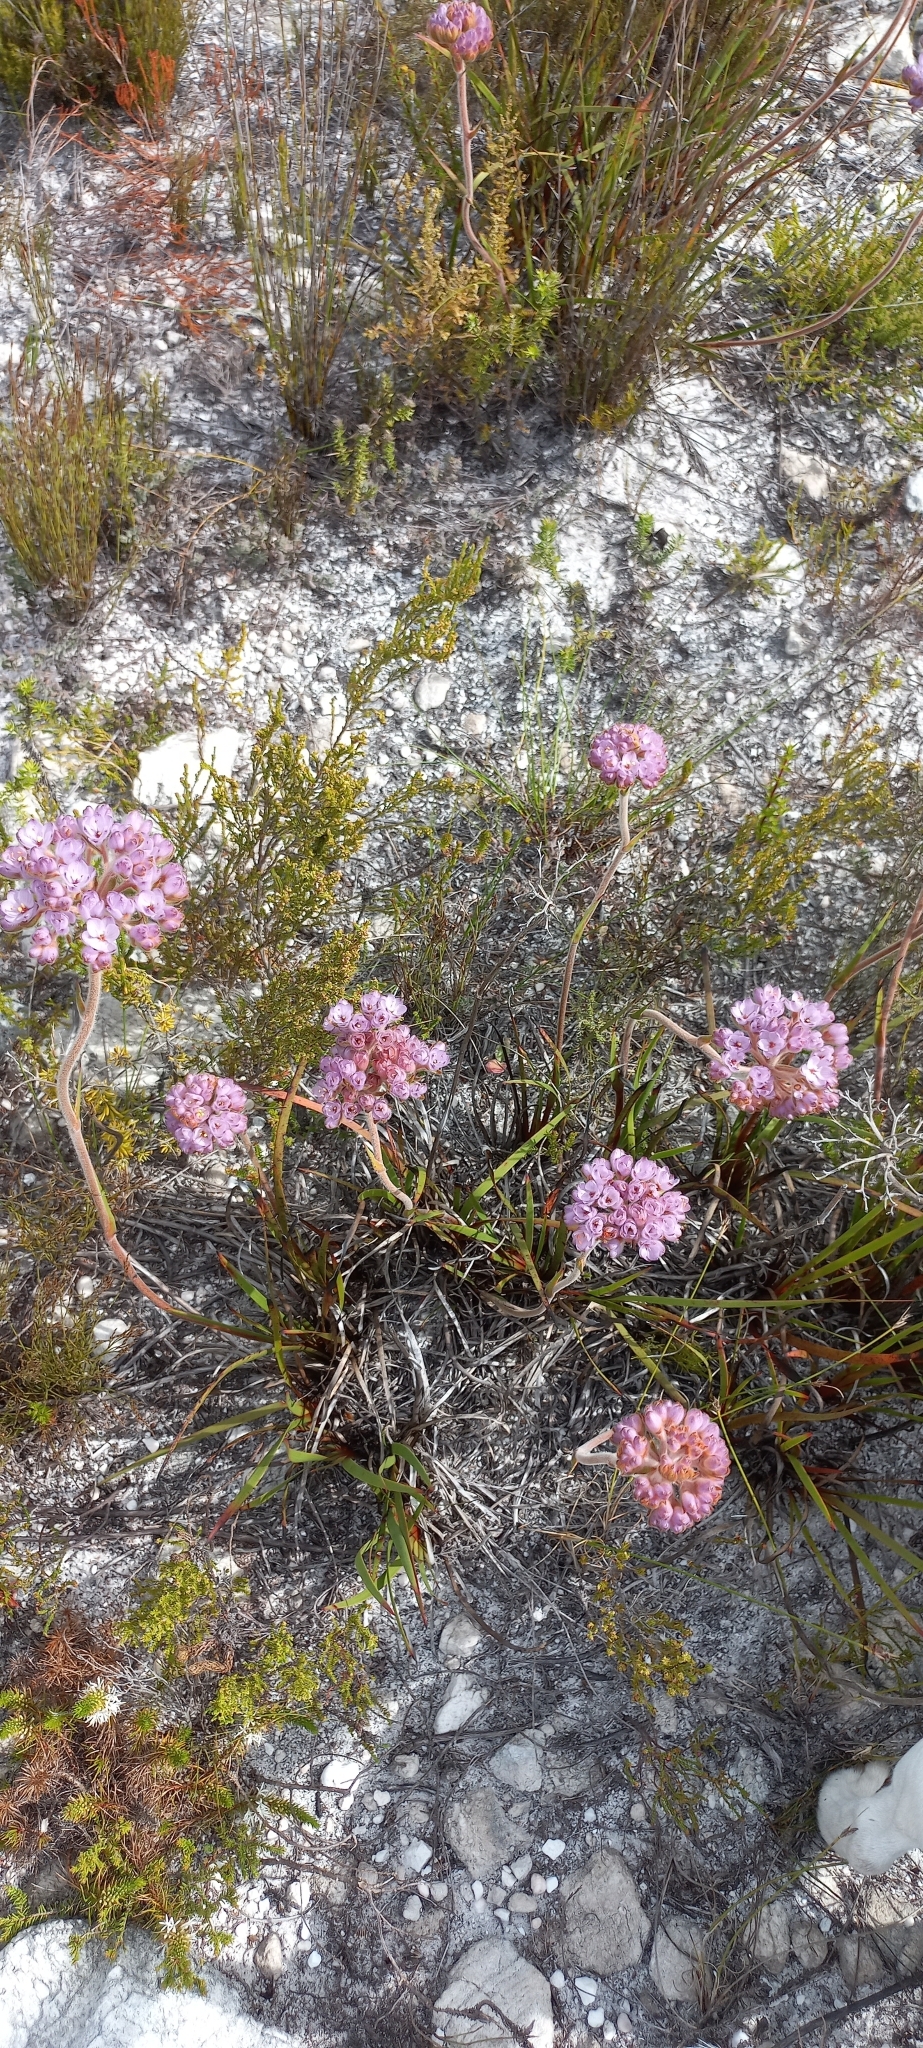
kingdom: Plantae
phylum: Tracheophyta
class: Liliopsida
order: Commelinales
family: Haemodoraceae
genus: Dilatris
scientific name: Dilatris pillansii
